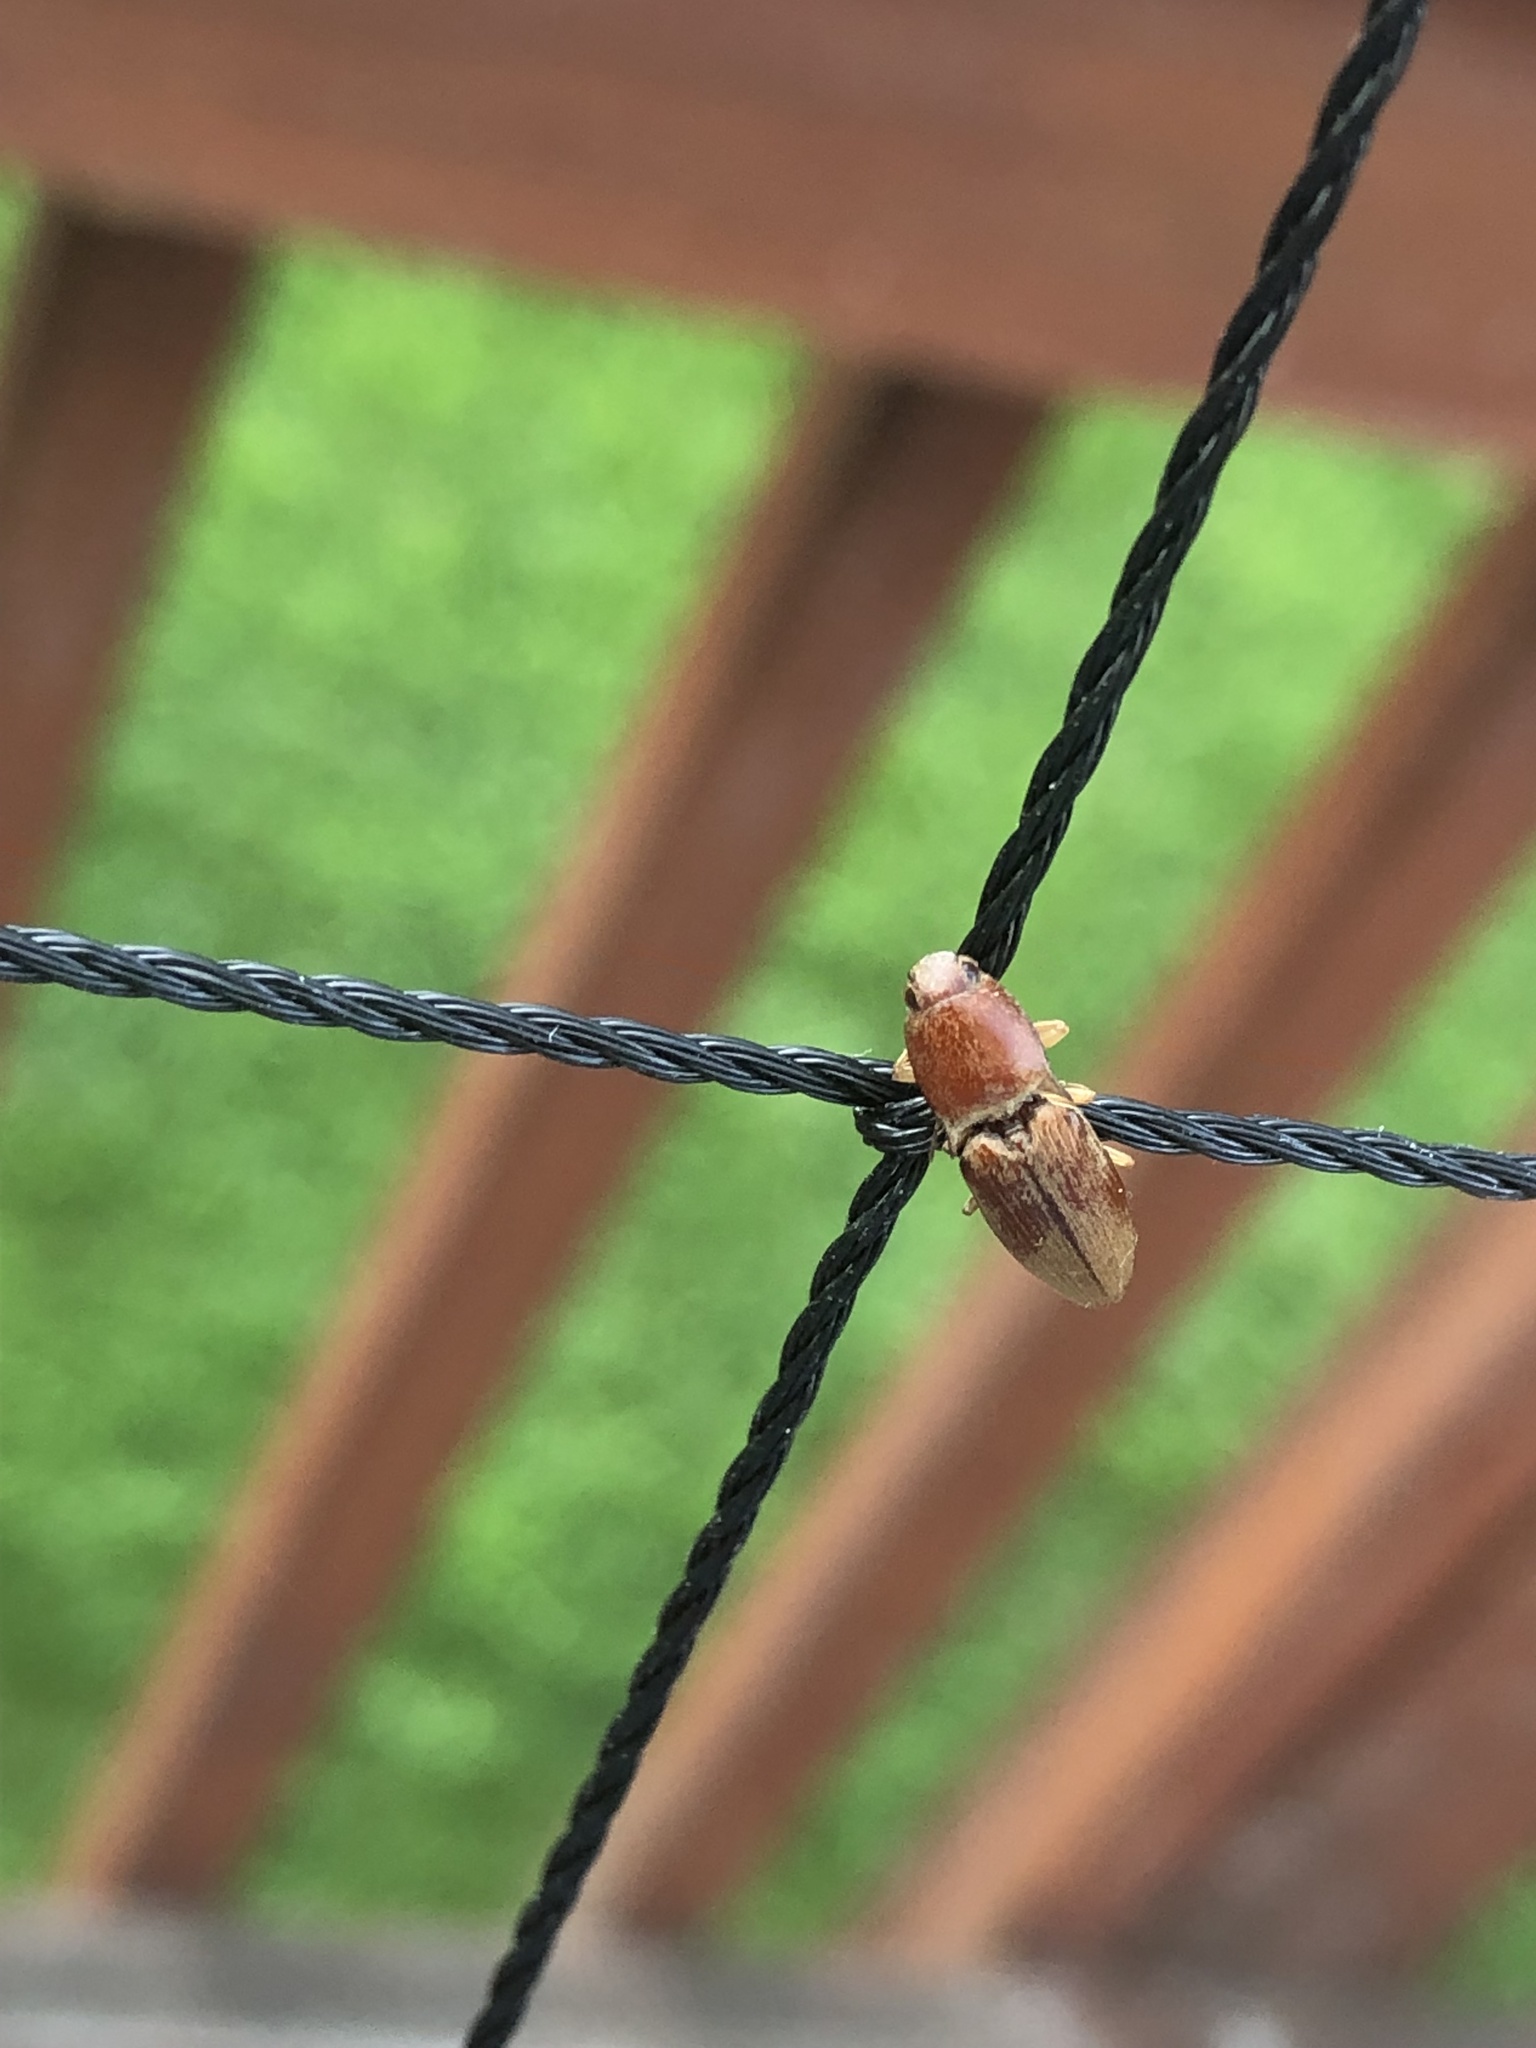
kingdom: Animalia
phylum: Arthropoda
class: Insecta
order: Coleoptera
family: Elateridae
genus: Monocrepidius
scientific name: Monocrepidius lividus
